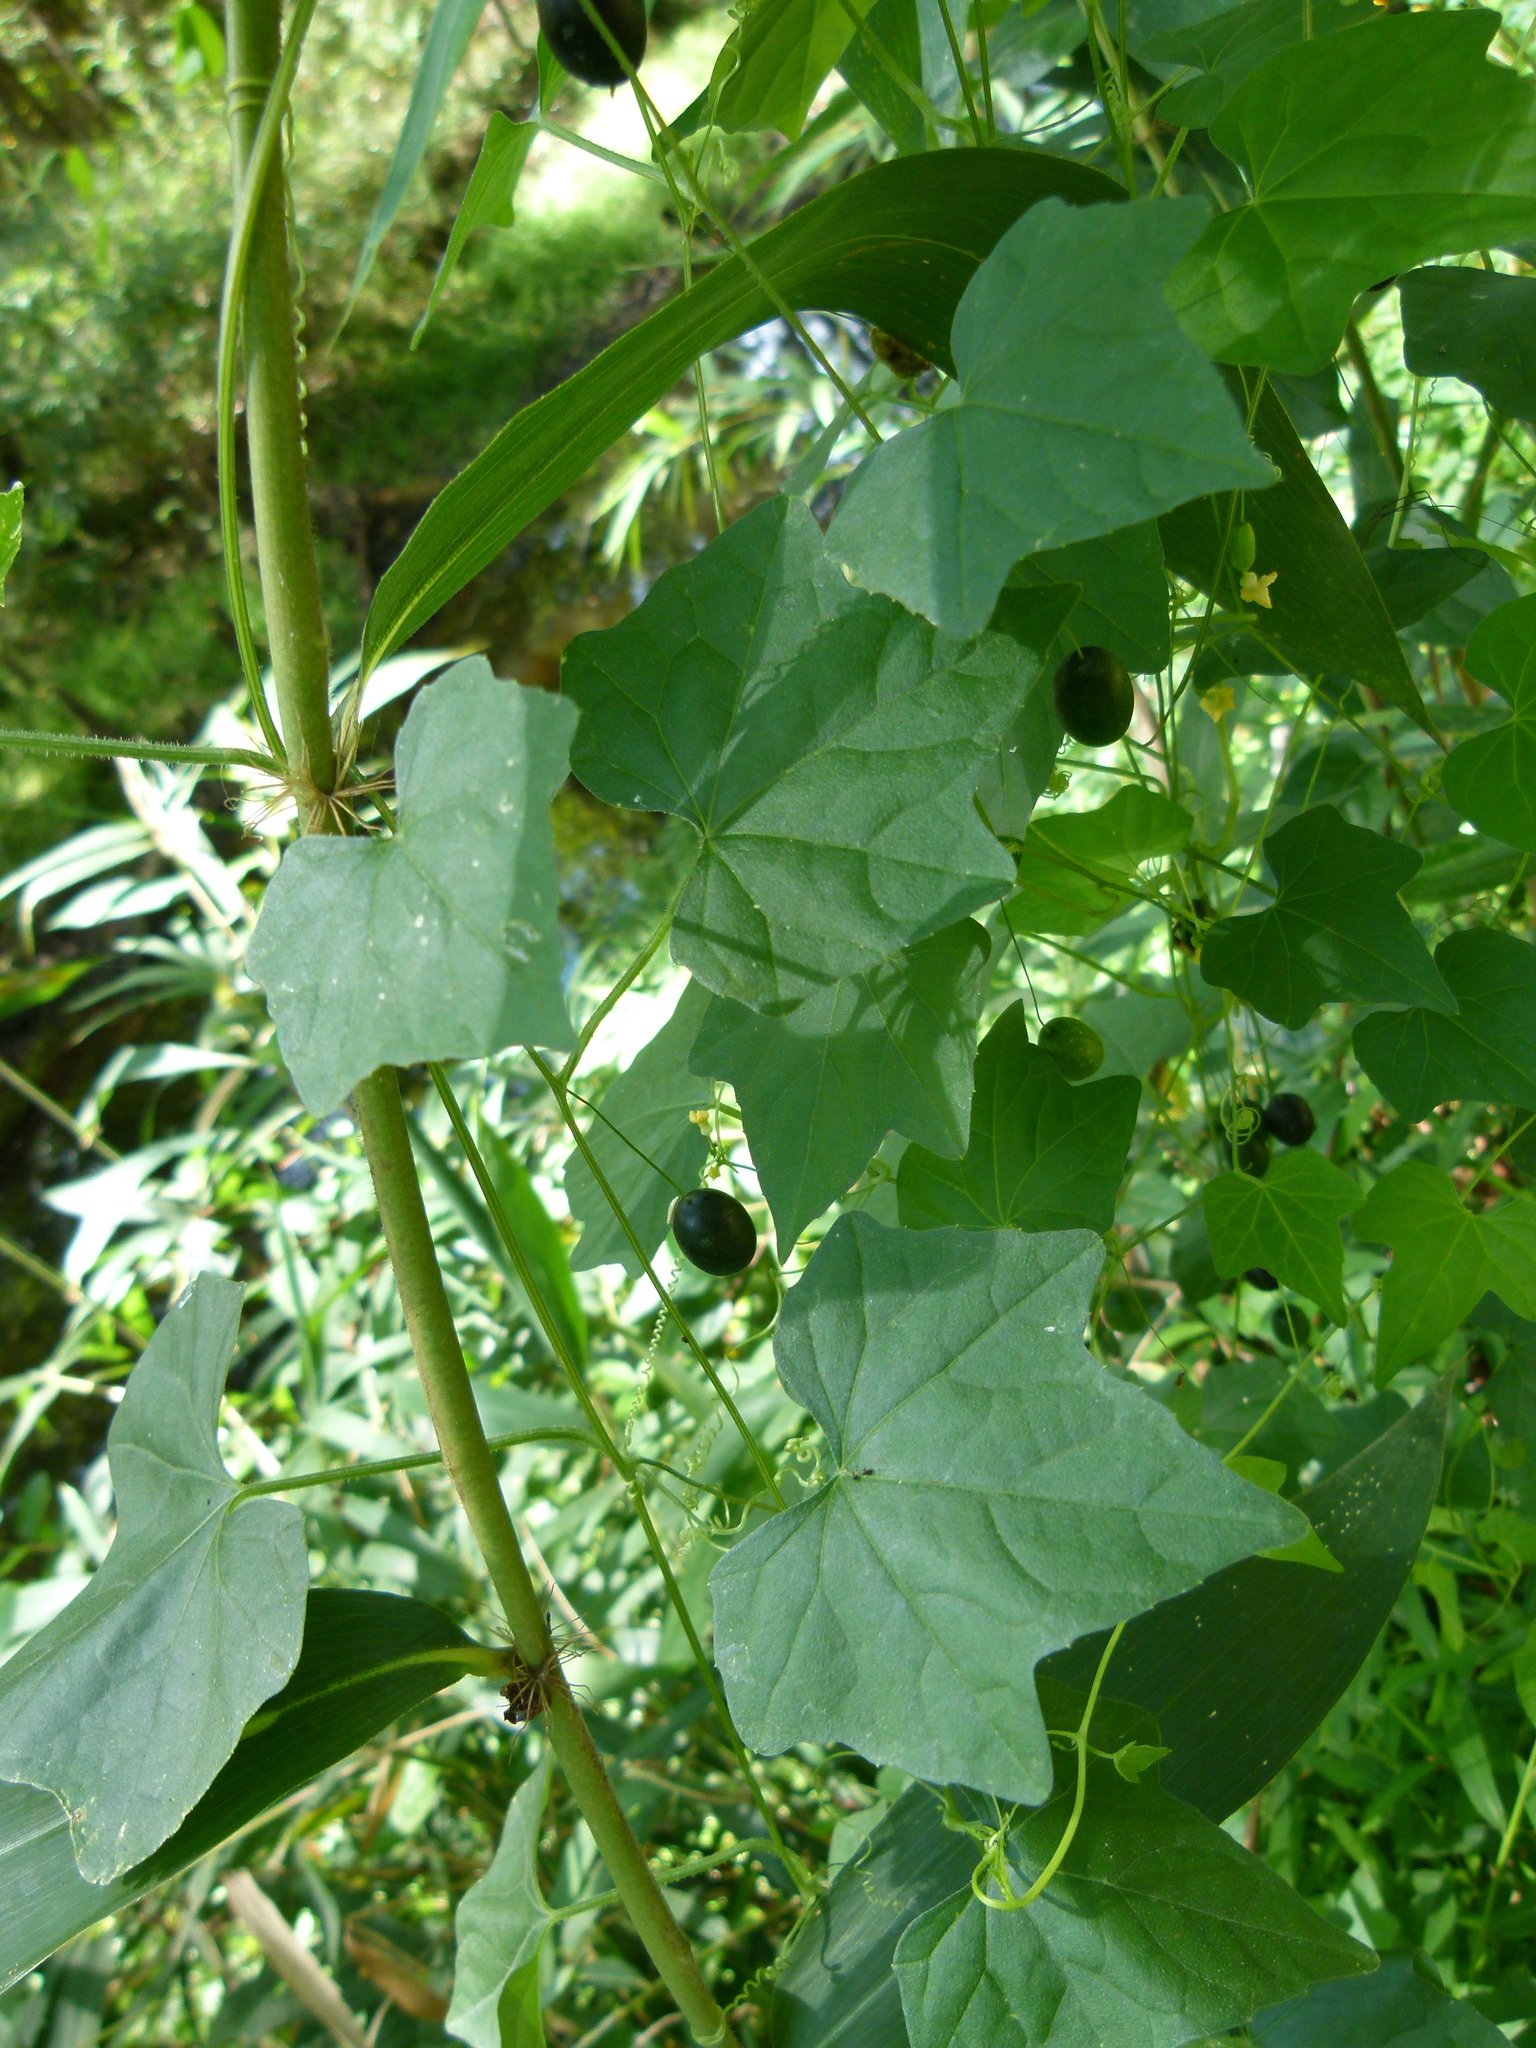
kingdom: Plantae
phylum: Tracheophyta
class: Magnoliopsida
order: Cucurbitales
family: Cucurbitaceae
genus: Melothria
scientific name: Melothria pendula
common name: Creeping-cucumber
